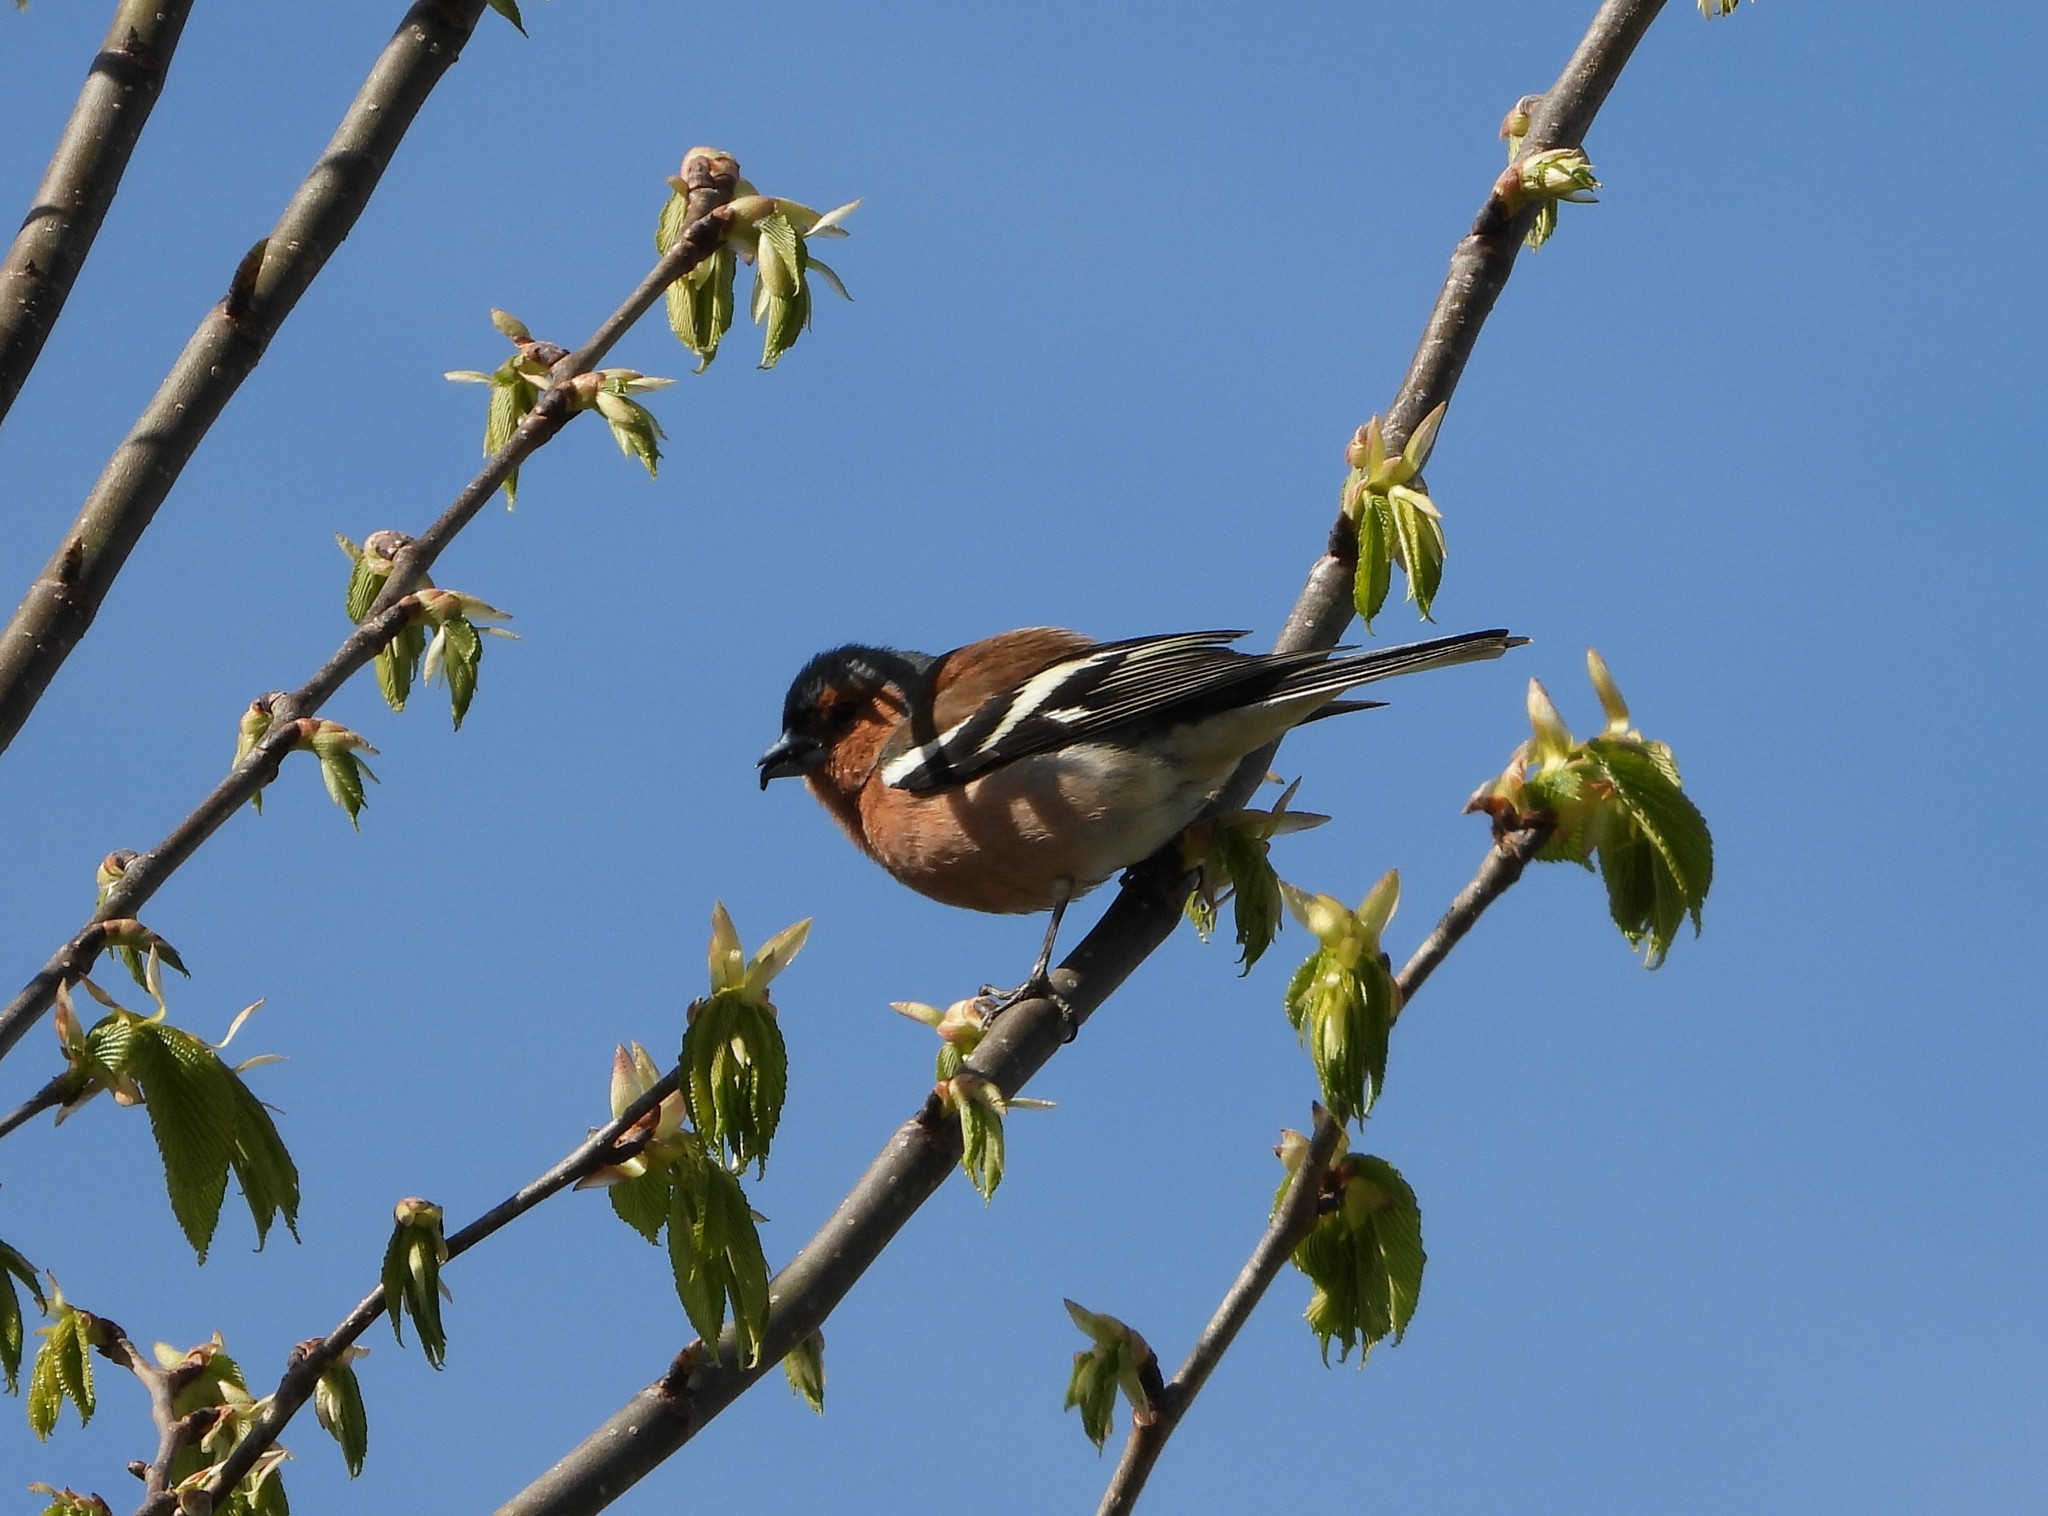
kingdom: Animalia
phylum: Chordata
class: Aves
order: Passeriformes
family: Fringillidae
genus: Fringilla
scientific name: Fringilla coelebs
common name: Common chaffinch
